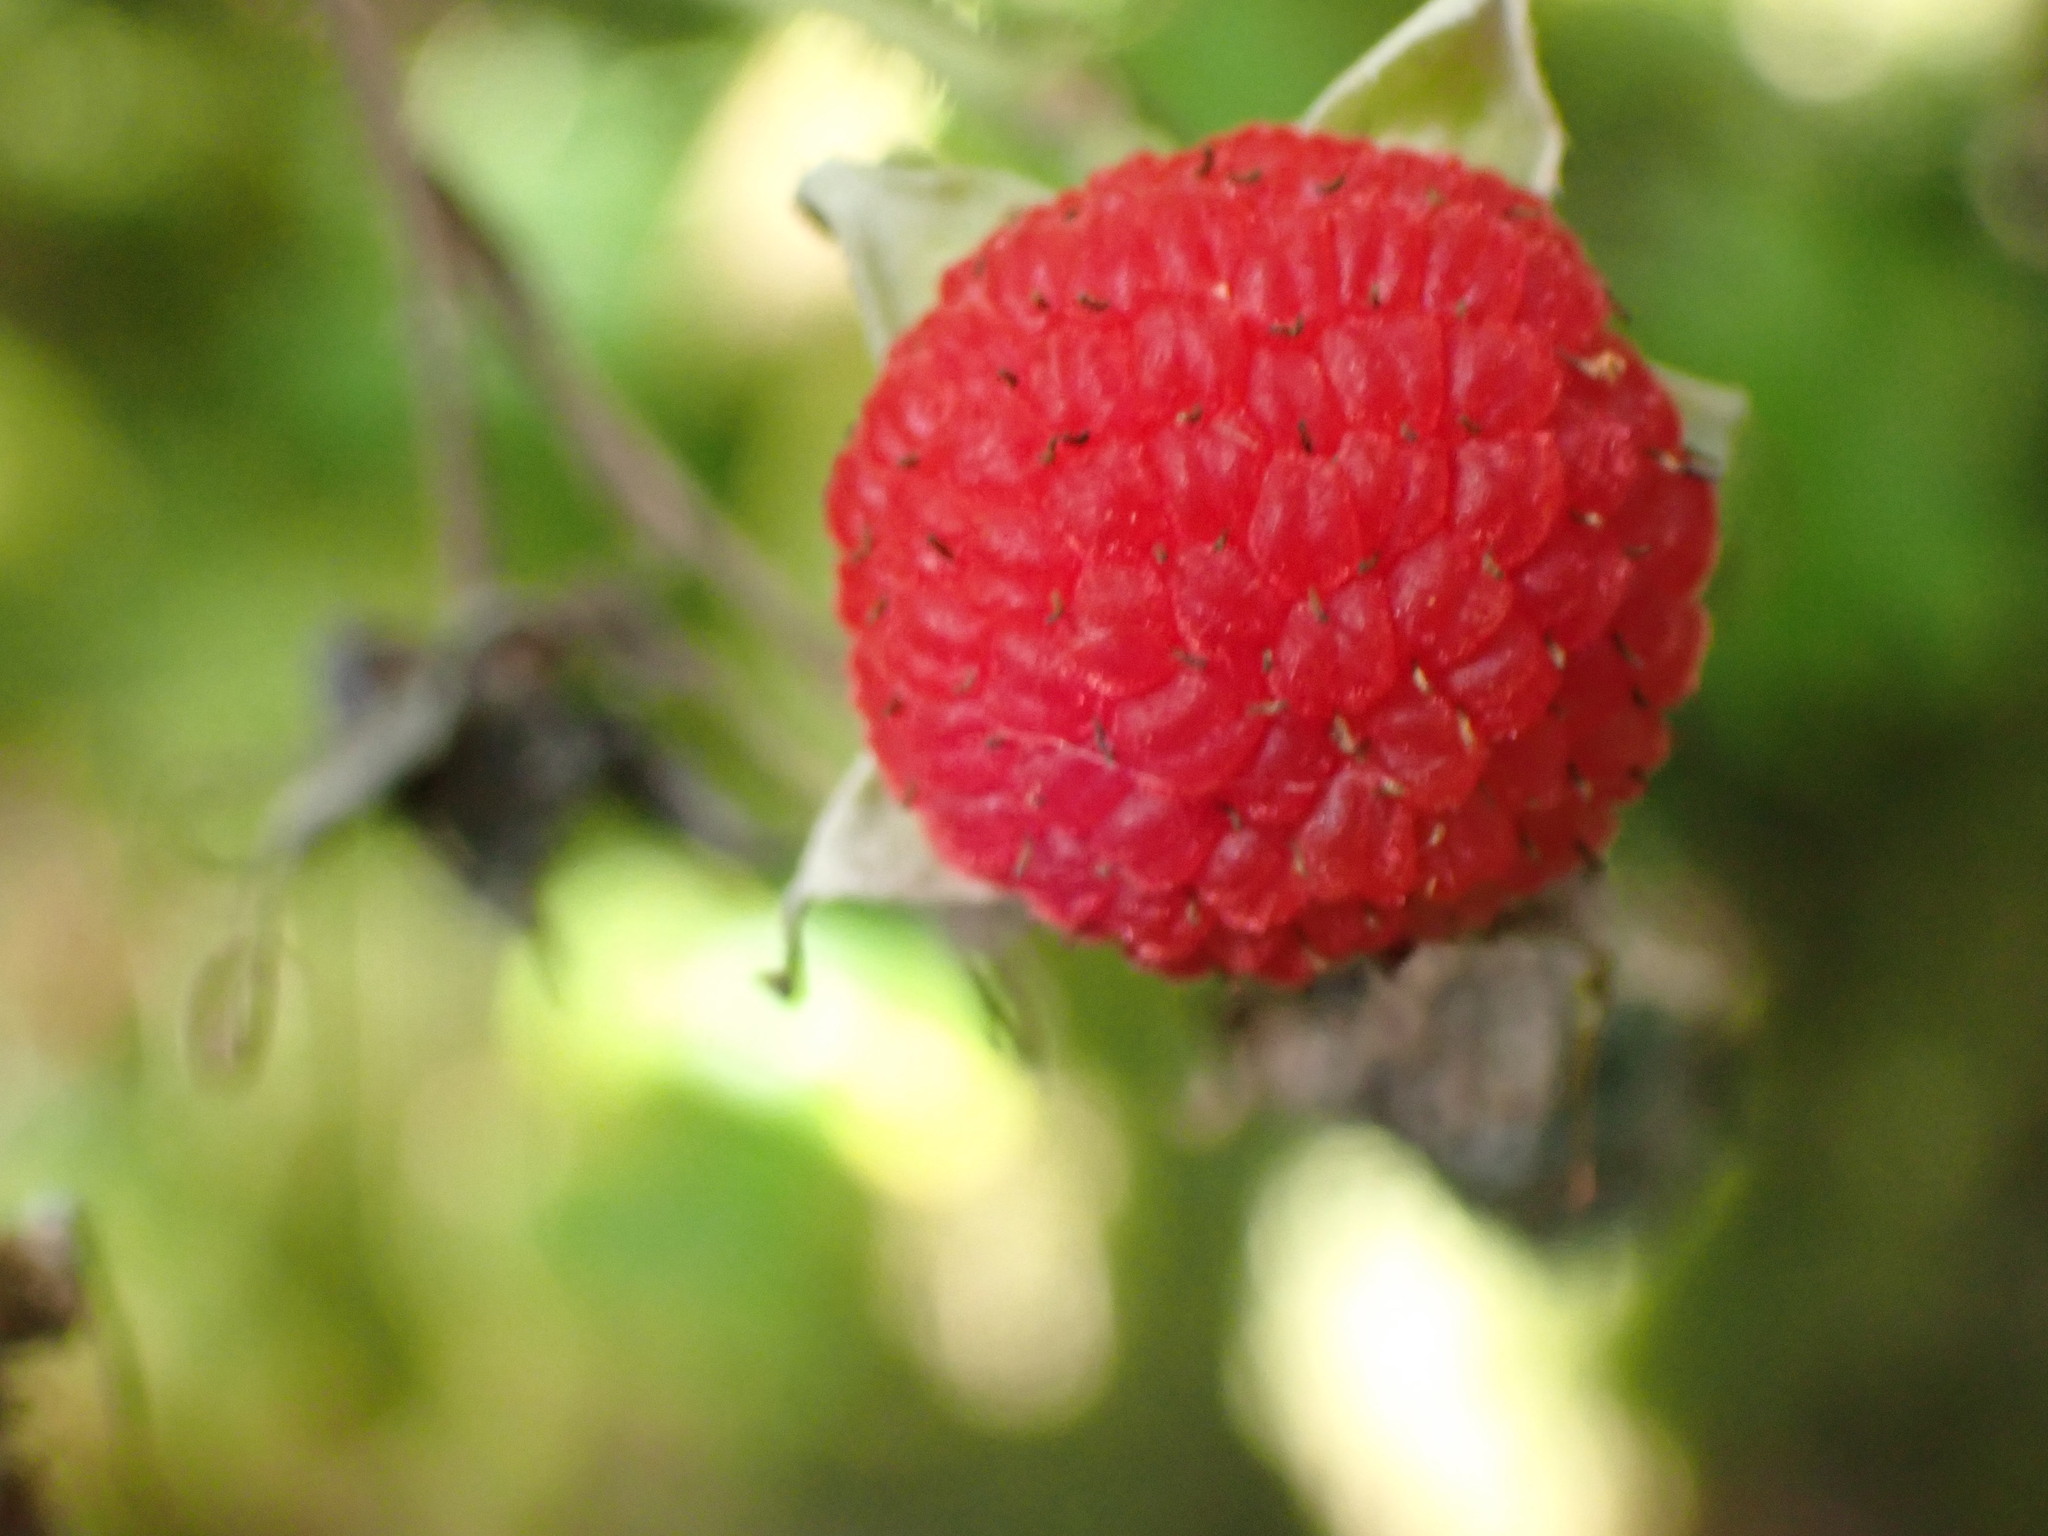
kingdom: Plantae
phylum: Tracheophyta
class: Magnoliopsida
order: Rosales
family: Rosaceae
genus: Rubus
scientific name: Rubus parviflorus
